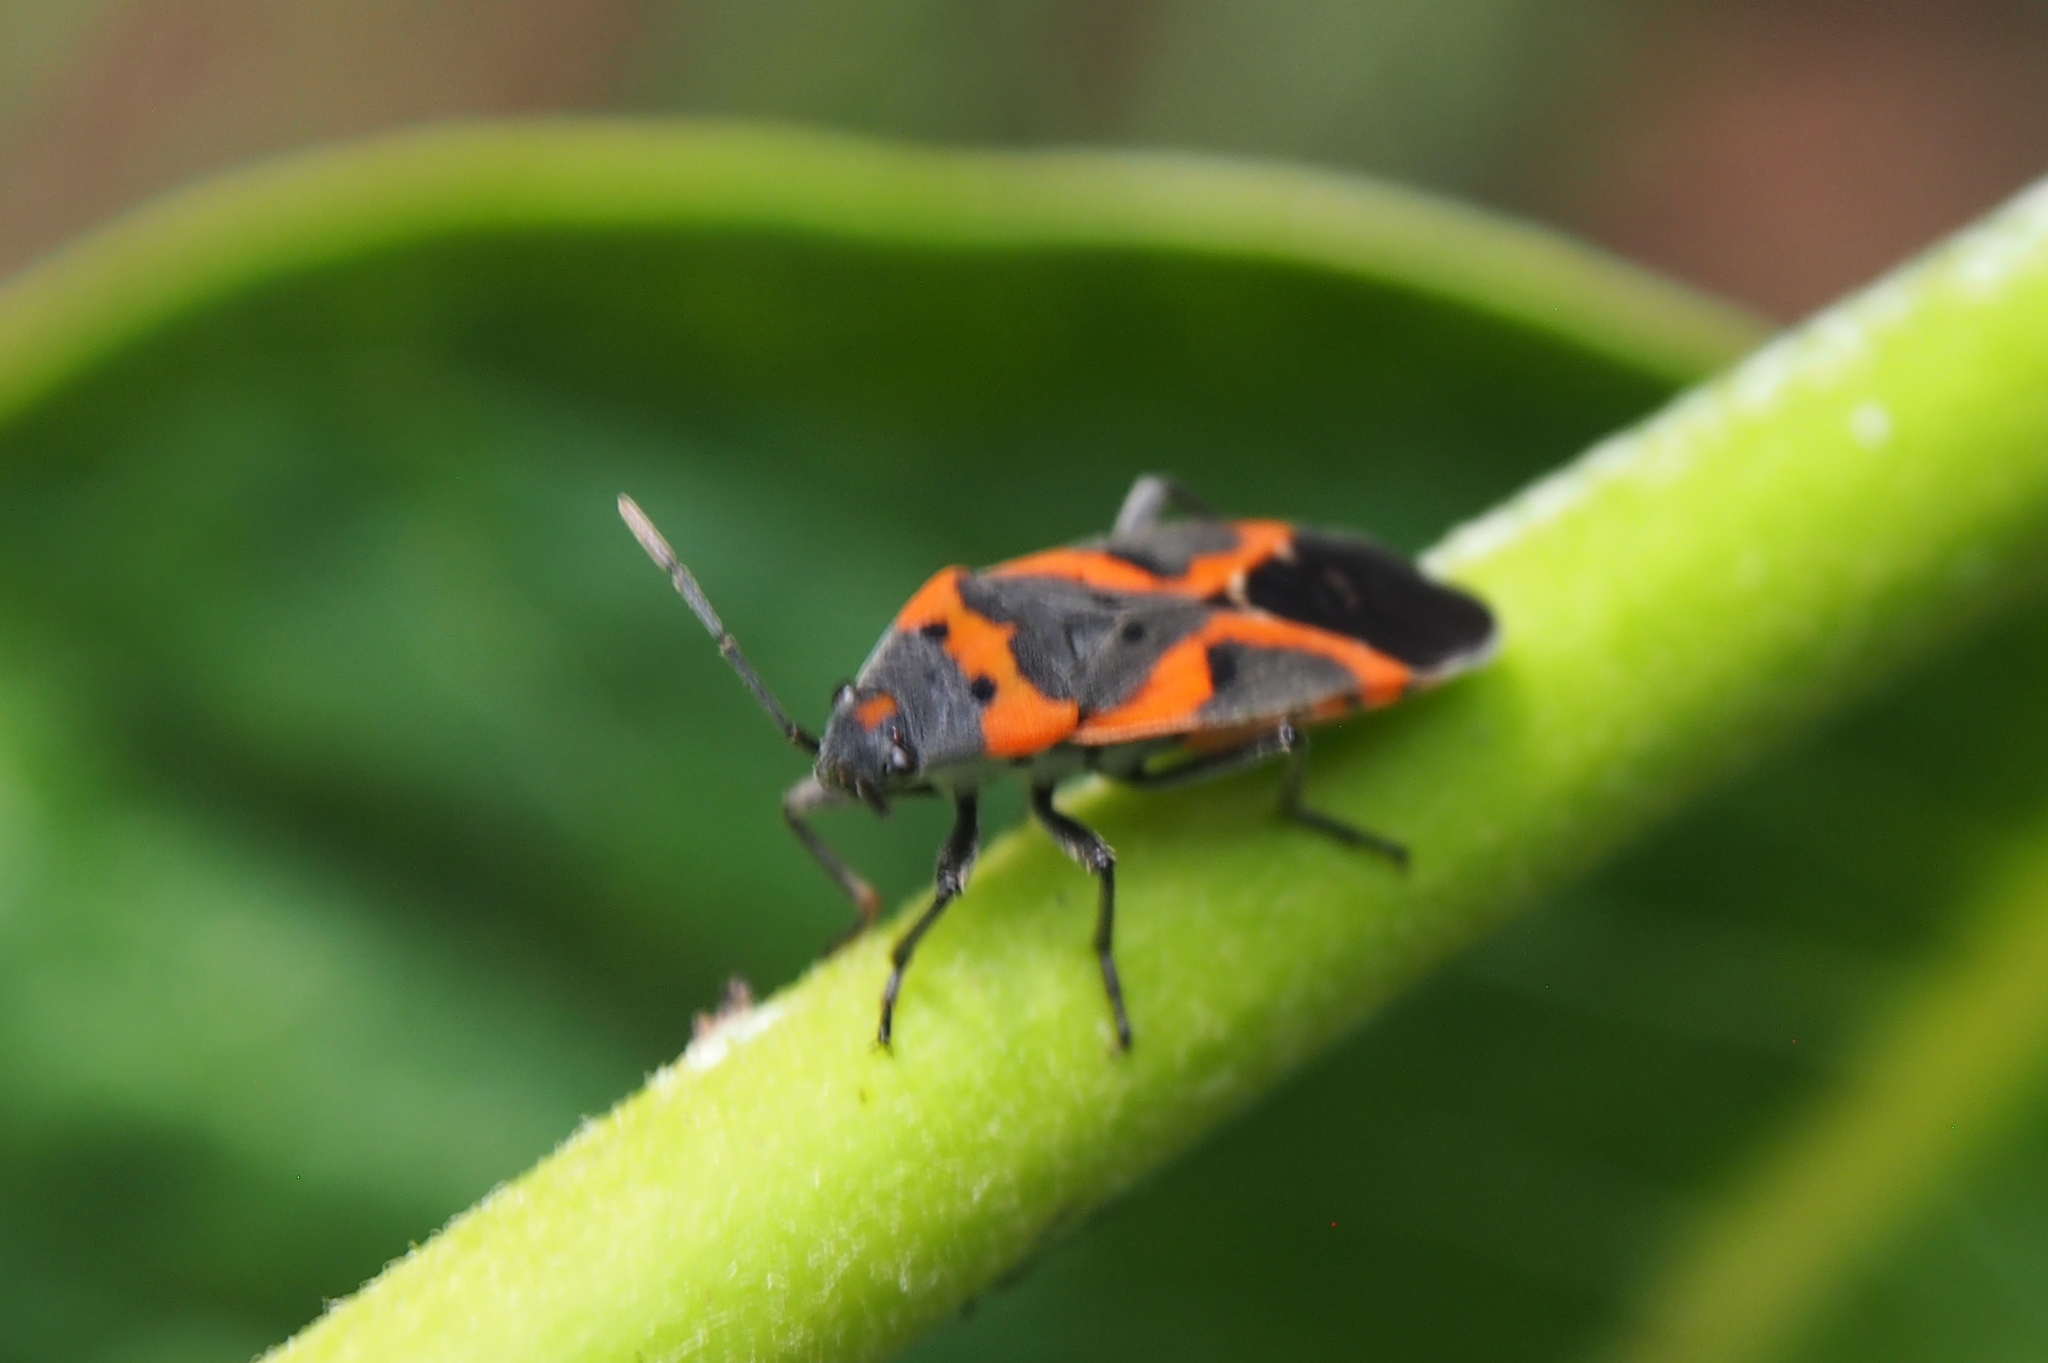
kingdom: Animalia
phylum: Arthropoda
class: Insecta
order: Hemiptera
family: Lygaeidae
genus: Lygaeus
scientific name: Lygaeus kalmii
